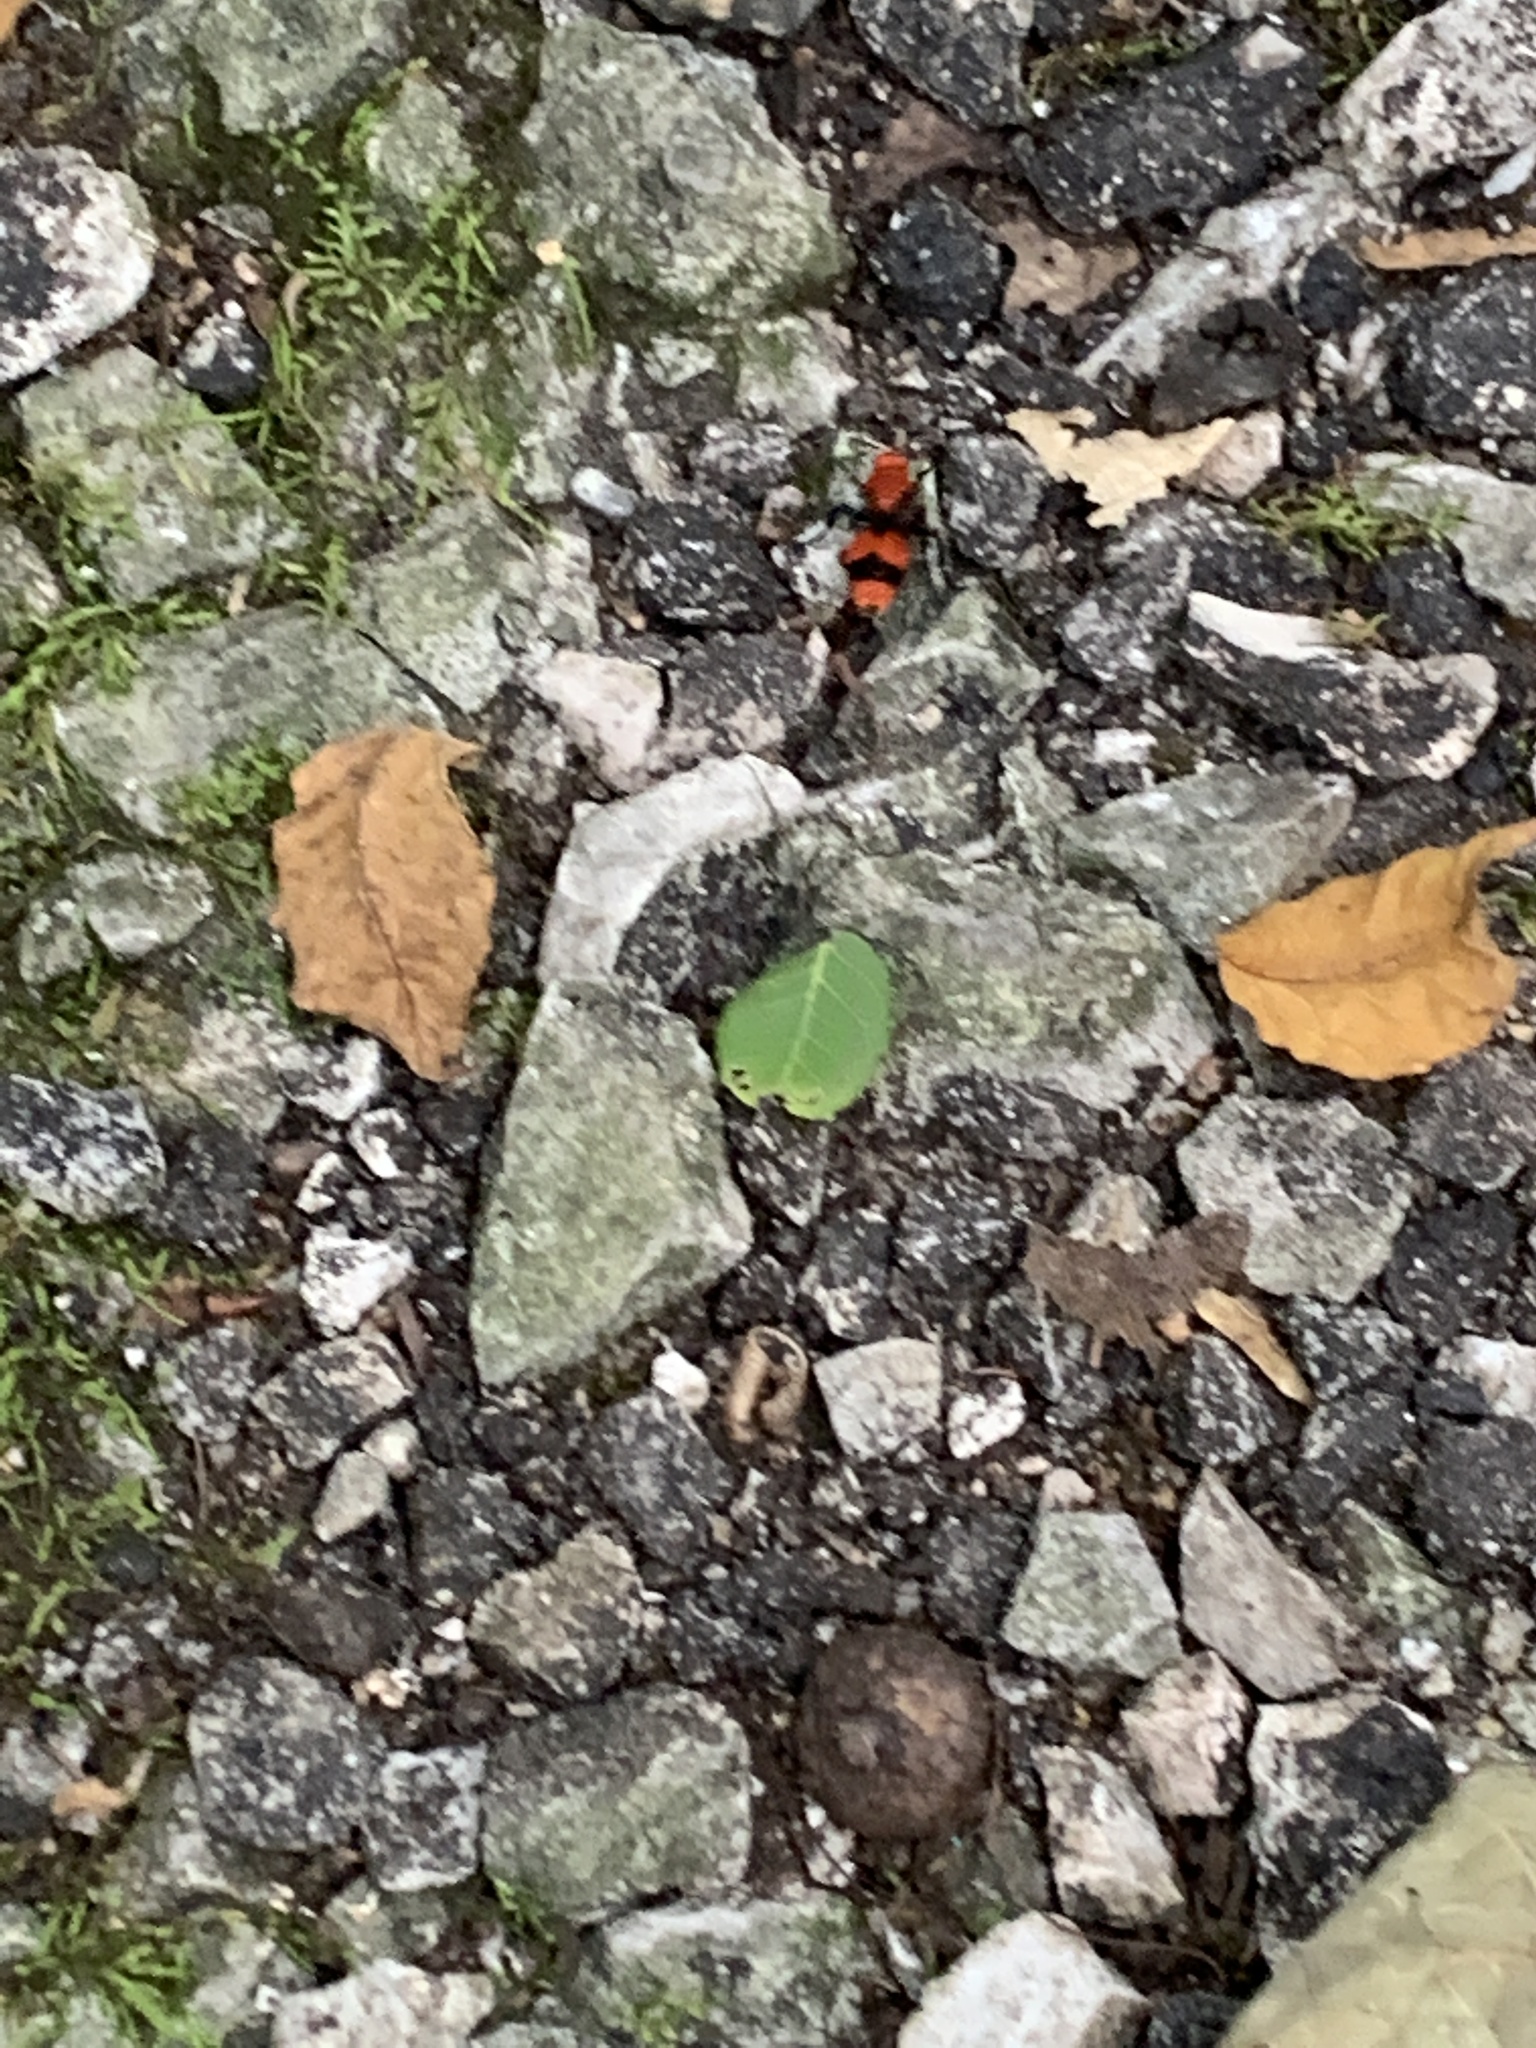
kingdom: Animalia
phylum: Arthropoda
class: Insecta
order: Hymenoptera
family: Mutillidae
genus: Dasymutilla
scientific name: Dasymutilla occidentalis
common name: Common eastern velvet ant
